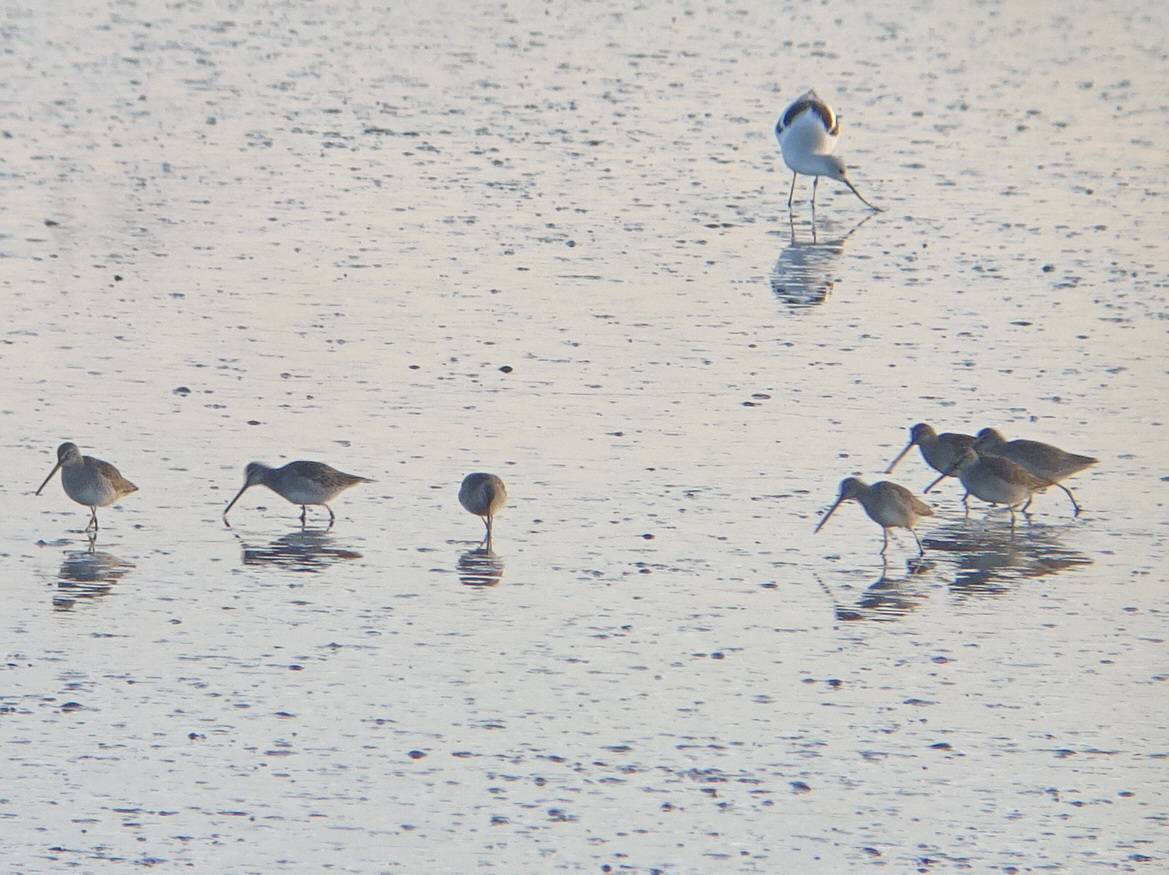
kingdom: Animalia
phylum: Chordata
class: Aves
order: Charadriiformes
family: Scolopacidae
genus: Limnodromus
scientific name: Limnodromus scolopaceus
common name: Long-billed dowitcher
